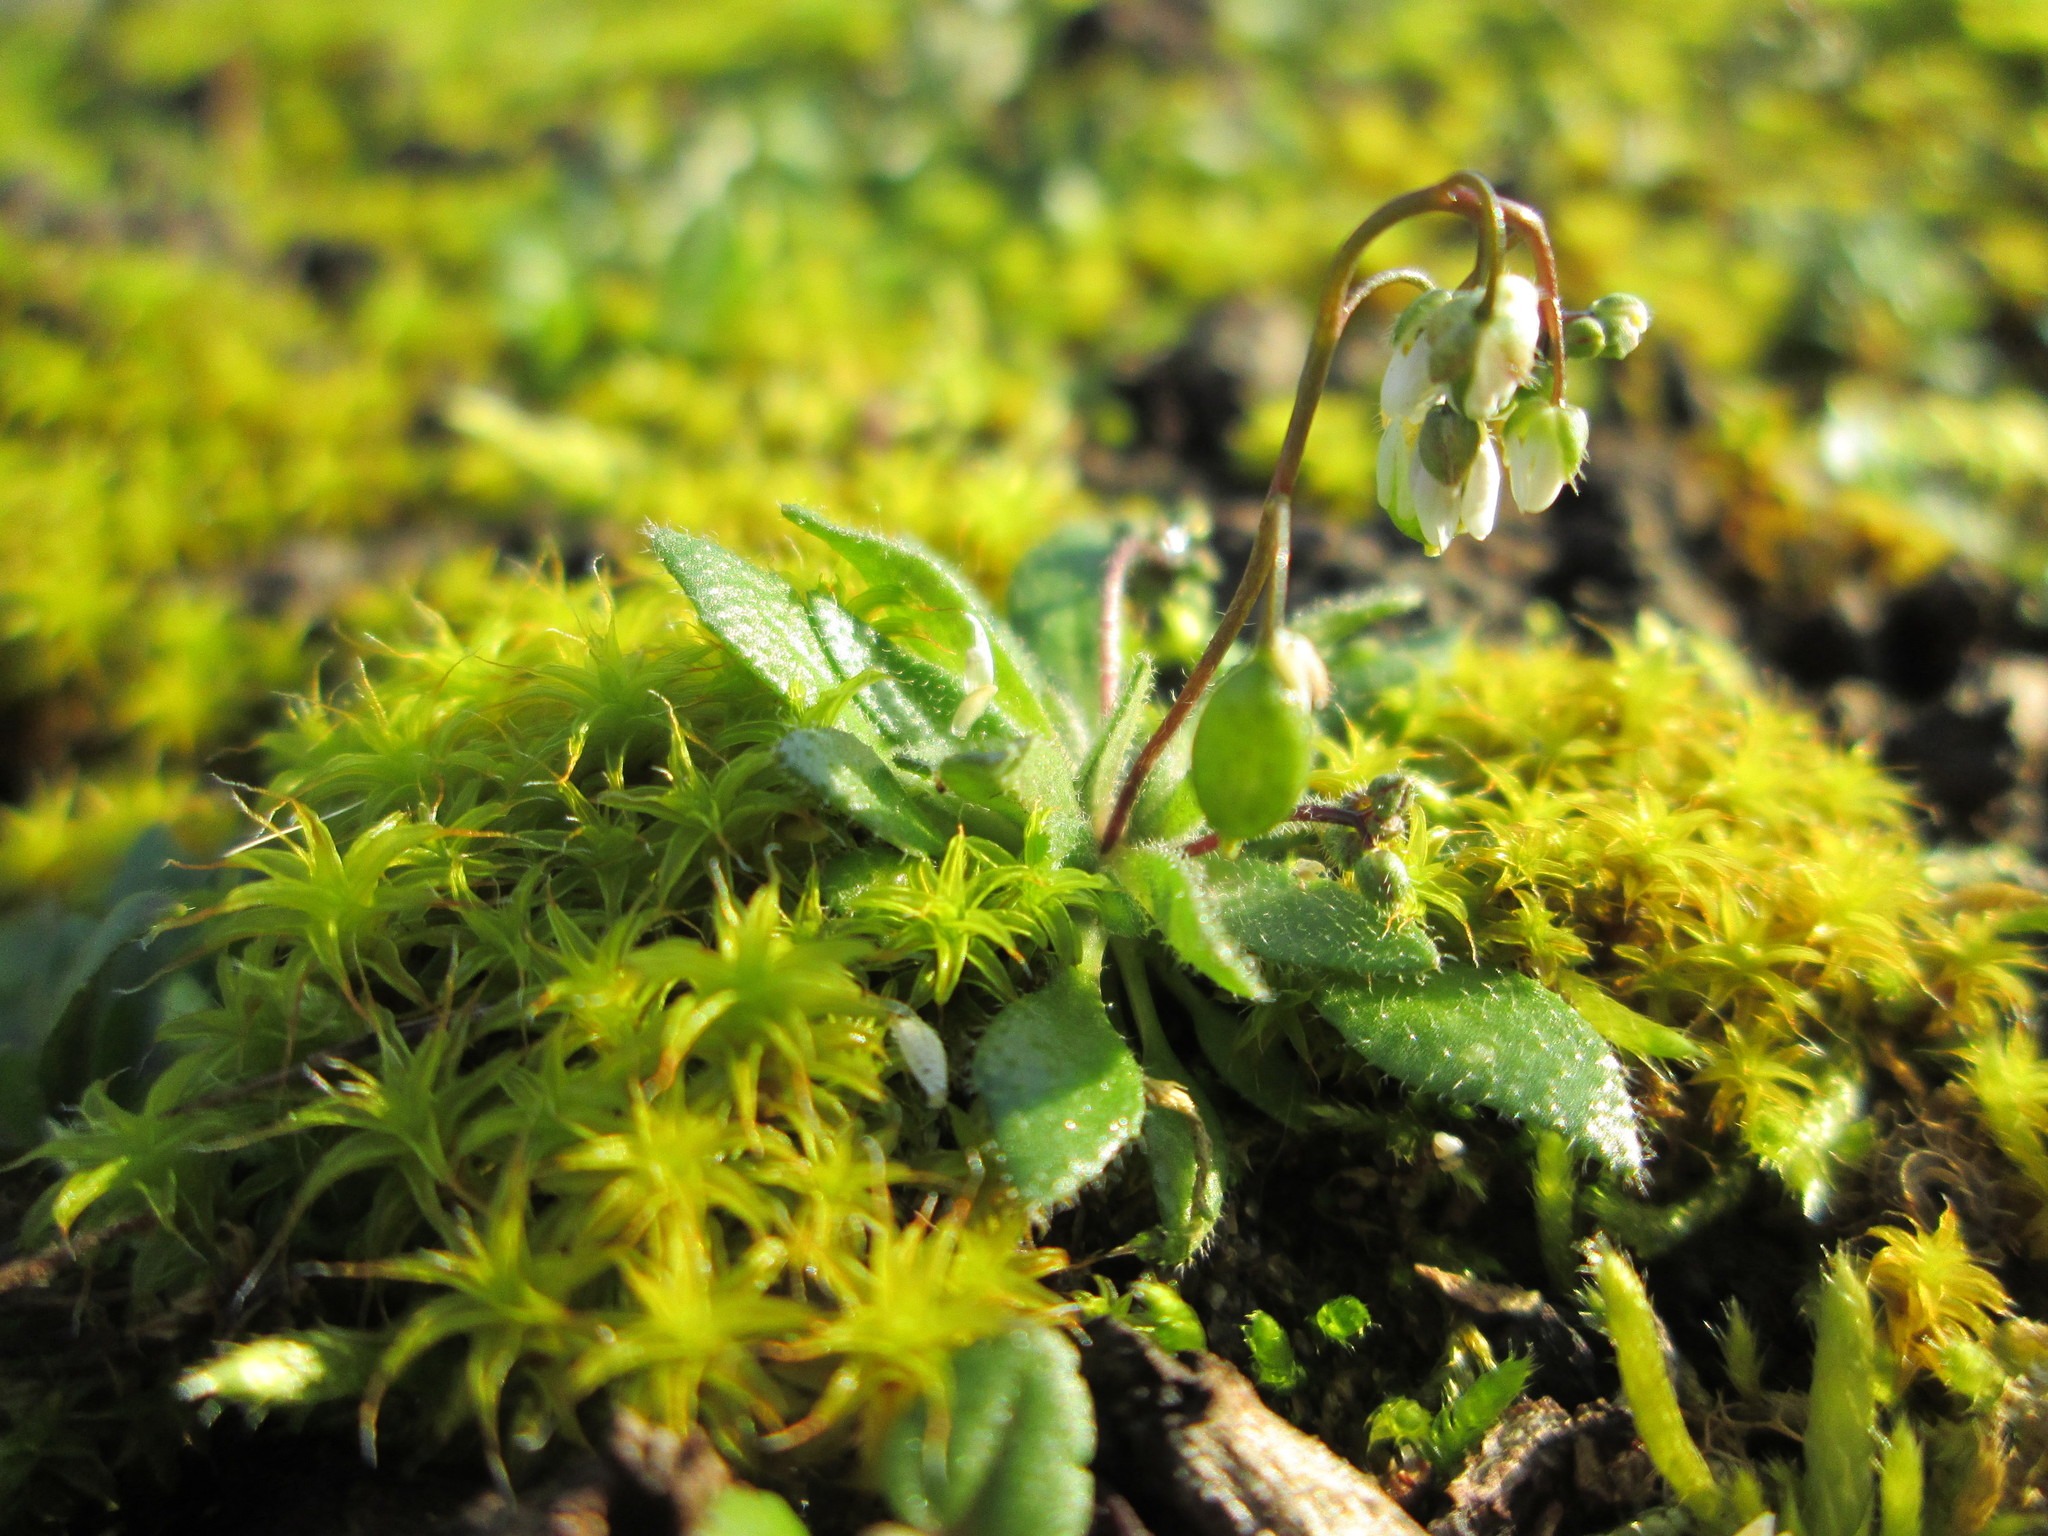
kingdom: Plantae
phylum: Tracheophyta
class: Magnoliopsida
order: Brassicales
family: Brassicaceae
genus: Draba
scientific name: Draba verna
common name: Spring draba
